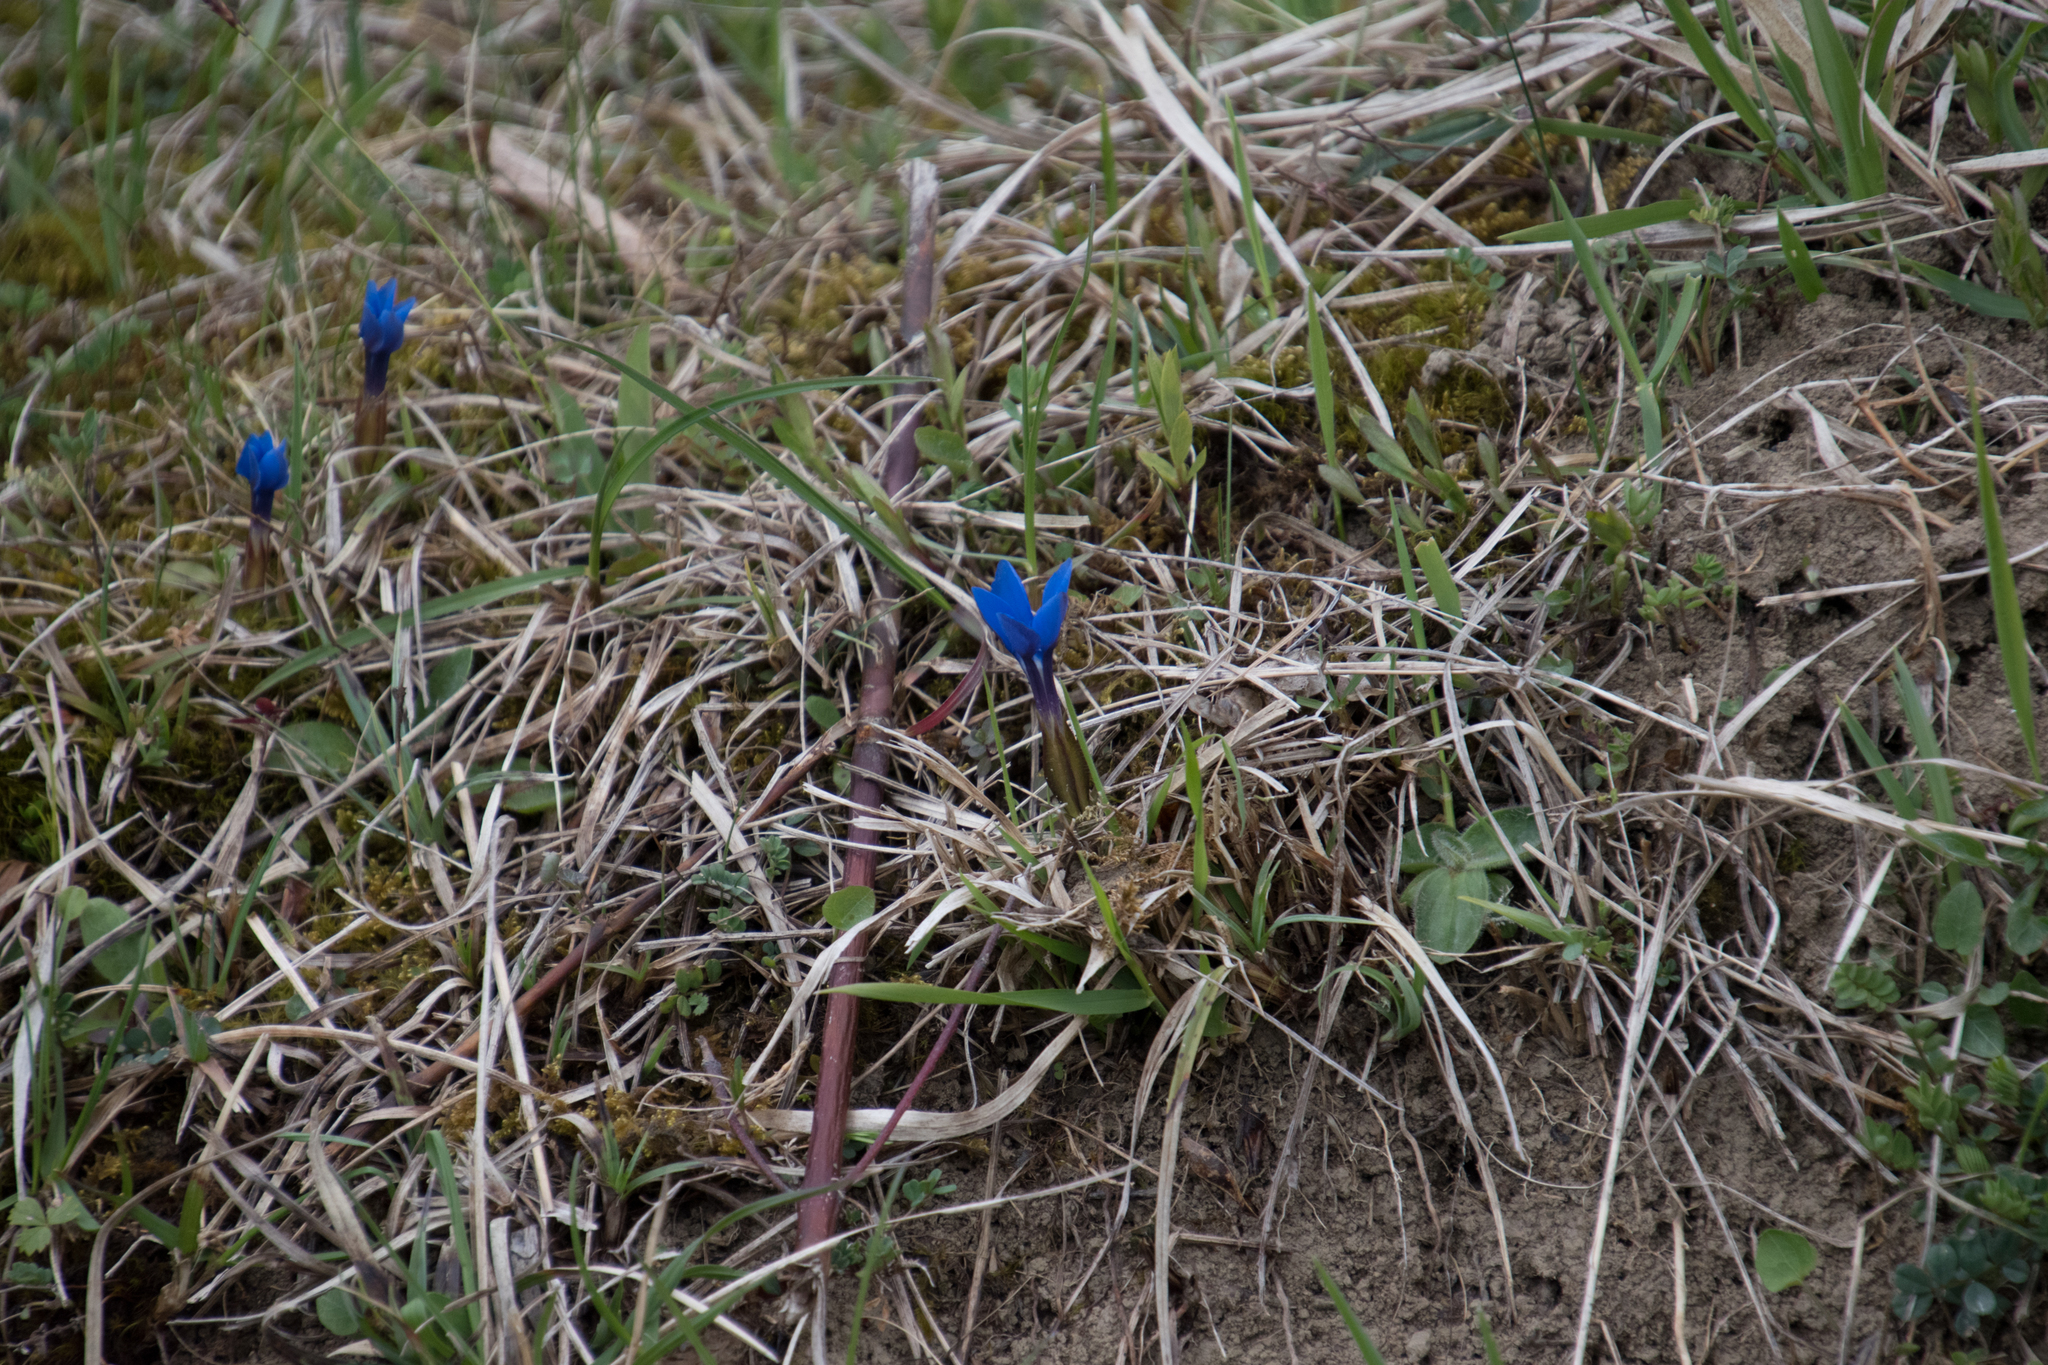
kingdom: Plantae
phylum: Tracheophyta
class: Magnoliopsida
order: Gentianales
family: Gentianaceae
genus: Gentiana
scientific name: Gentiana verna
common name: Spring gentian
